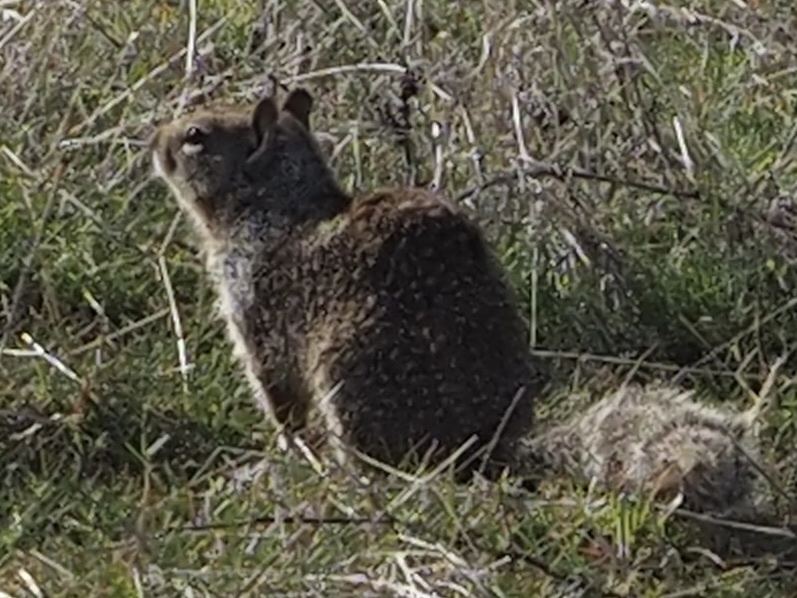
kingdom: Animalia
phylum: Chordata
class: Mammalia
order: Rodentia
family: Sciuridae
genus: Otospermophilus
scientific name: Otospermophilus beecheyi
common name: California ground squirrel
